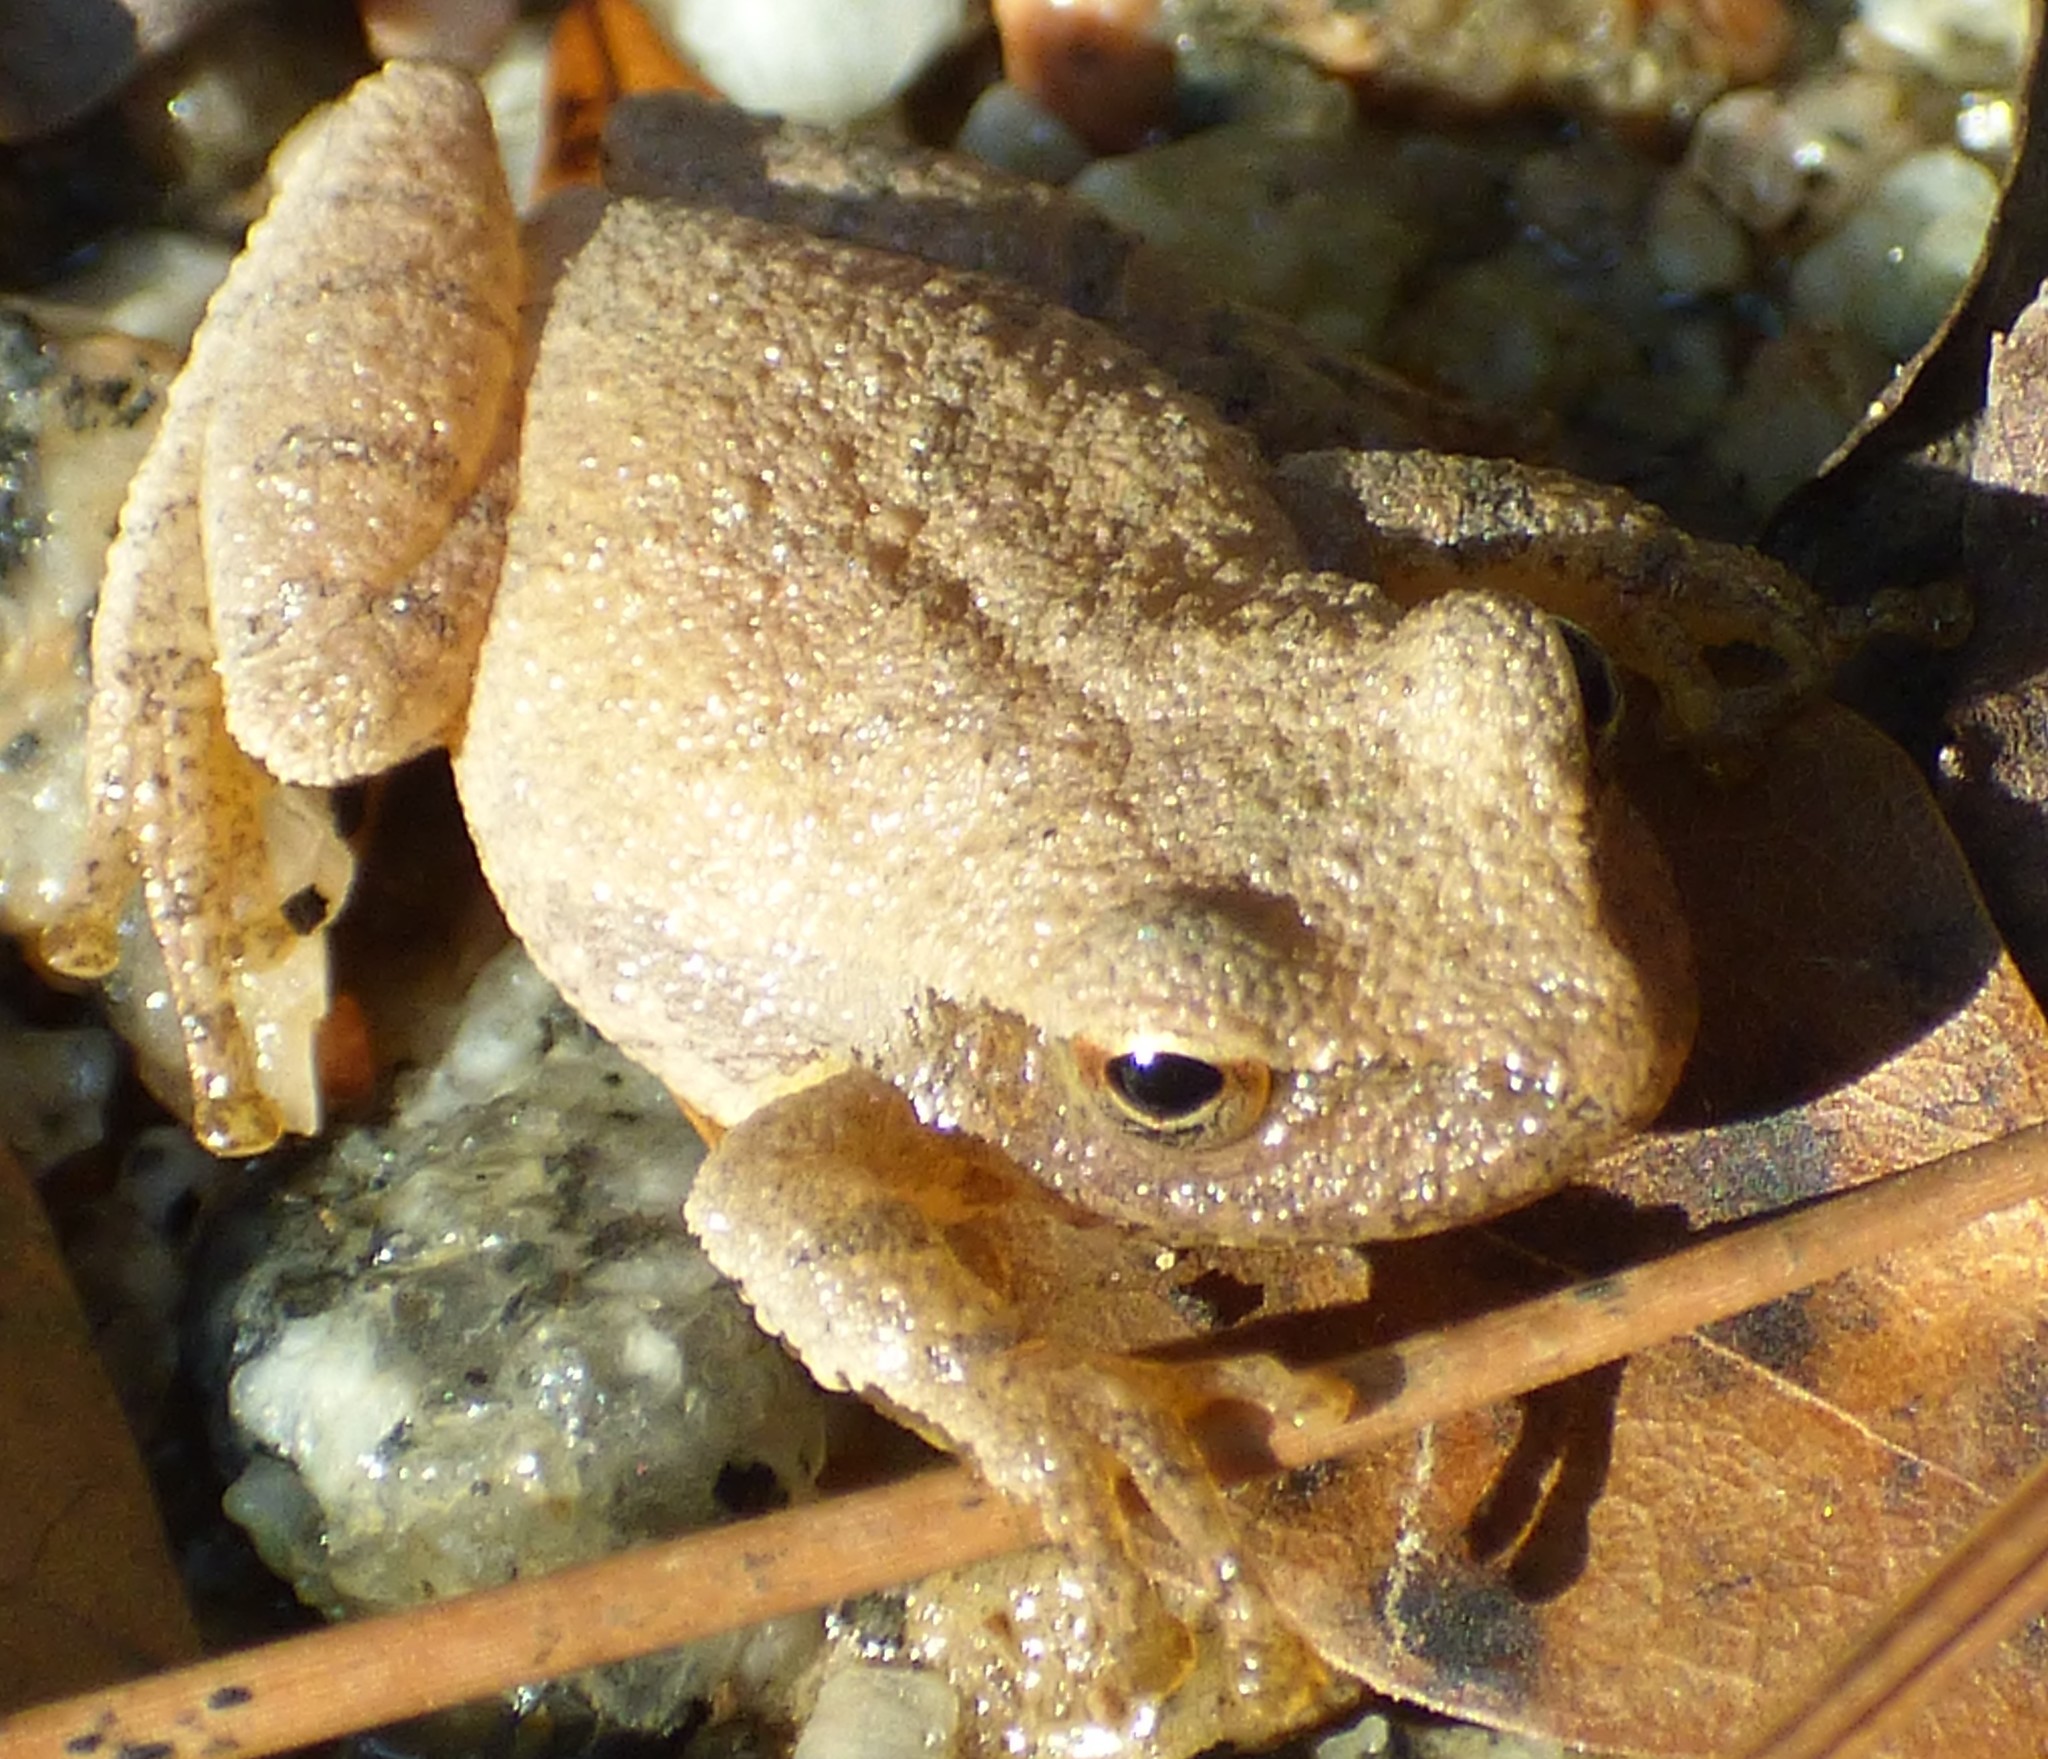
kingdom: Animalia
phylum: Chordata
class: Amphibia
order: Anura
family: Hylidae
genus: Pseudacris
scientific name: Pseudacris crucifer
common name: Spring peeper
